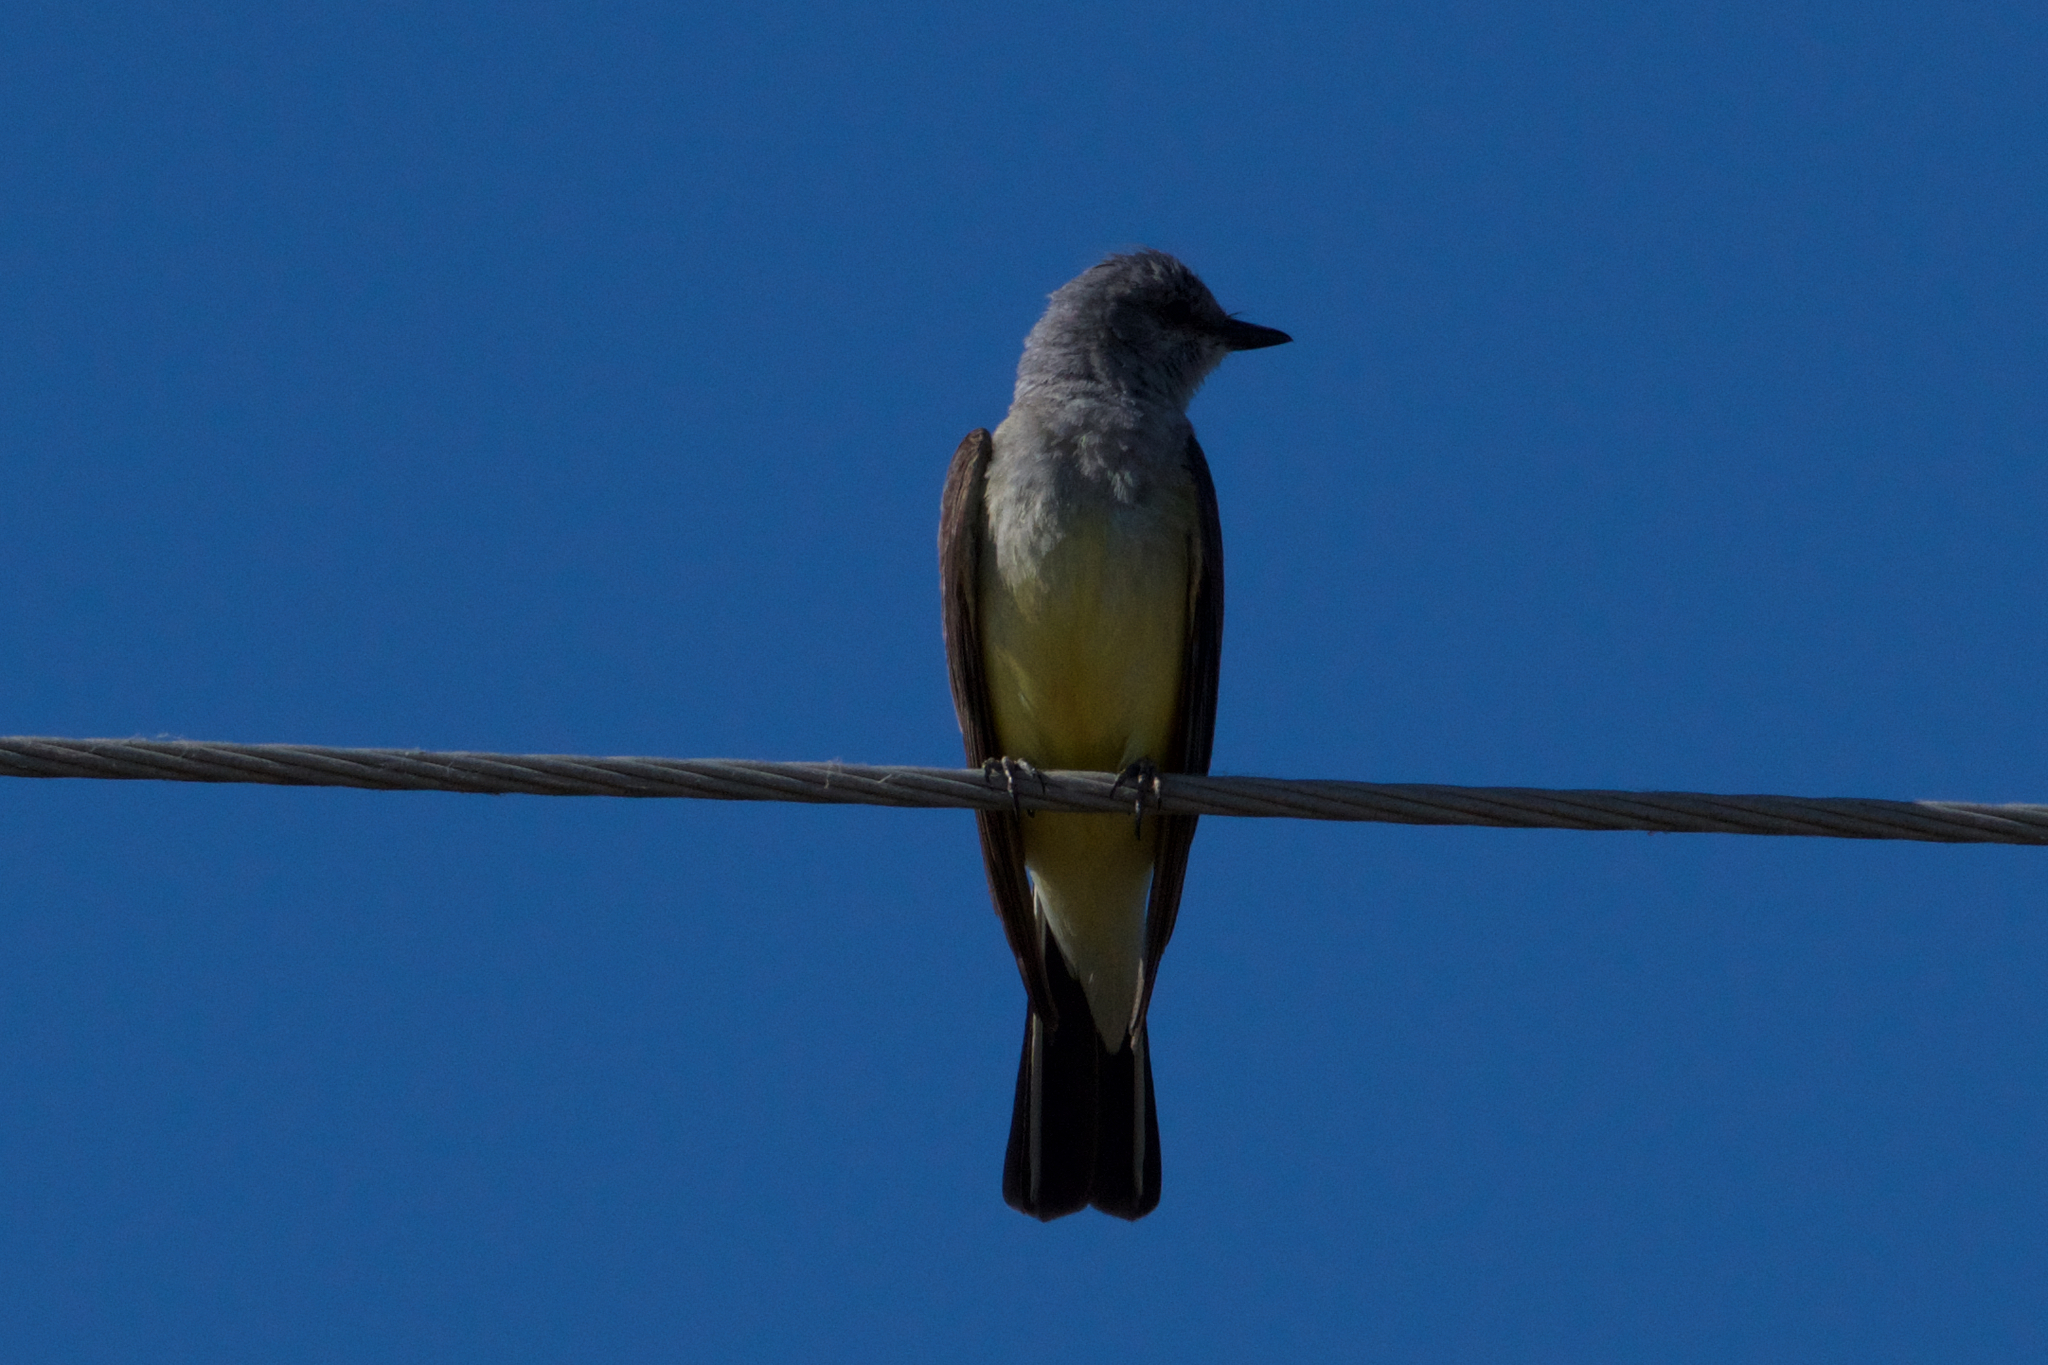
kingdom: Animalia
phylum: Chordata
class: Aves
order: Passeriformes
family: Tyrannidae
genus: Tyrannus
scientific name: Tyrannus verticalis
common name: Western kingbird
